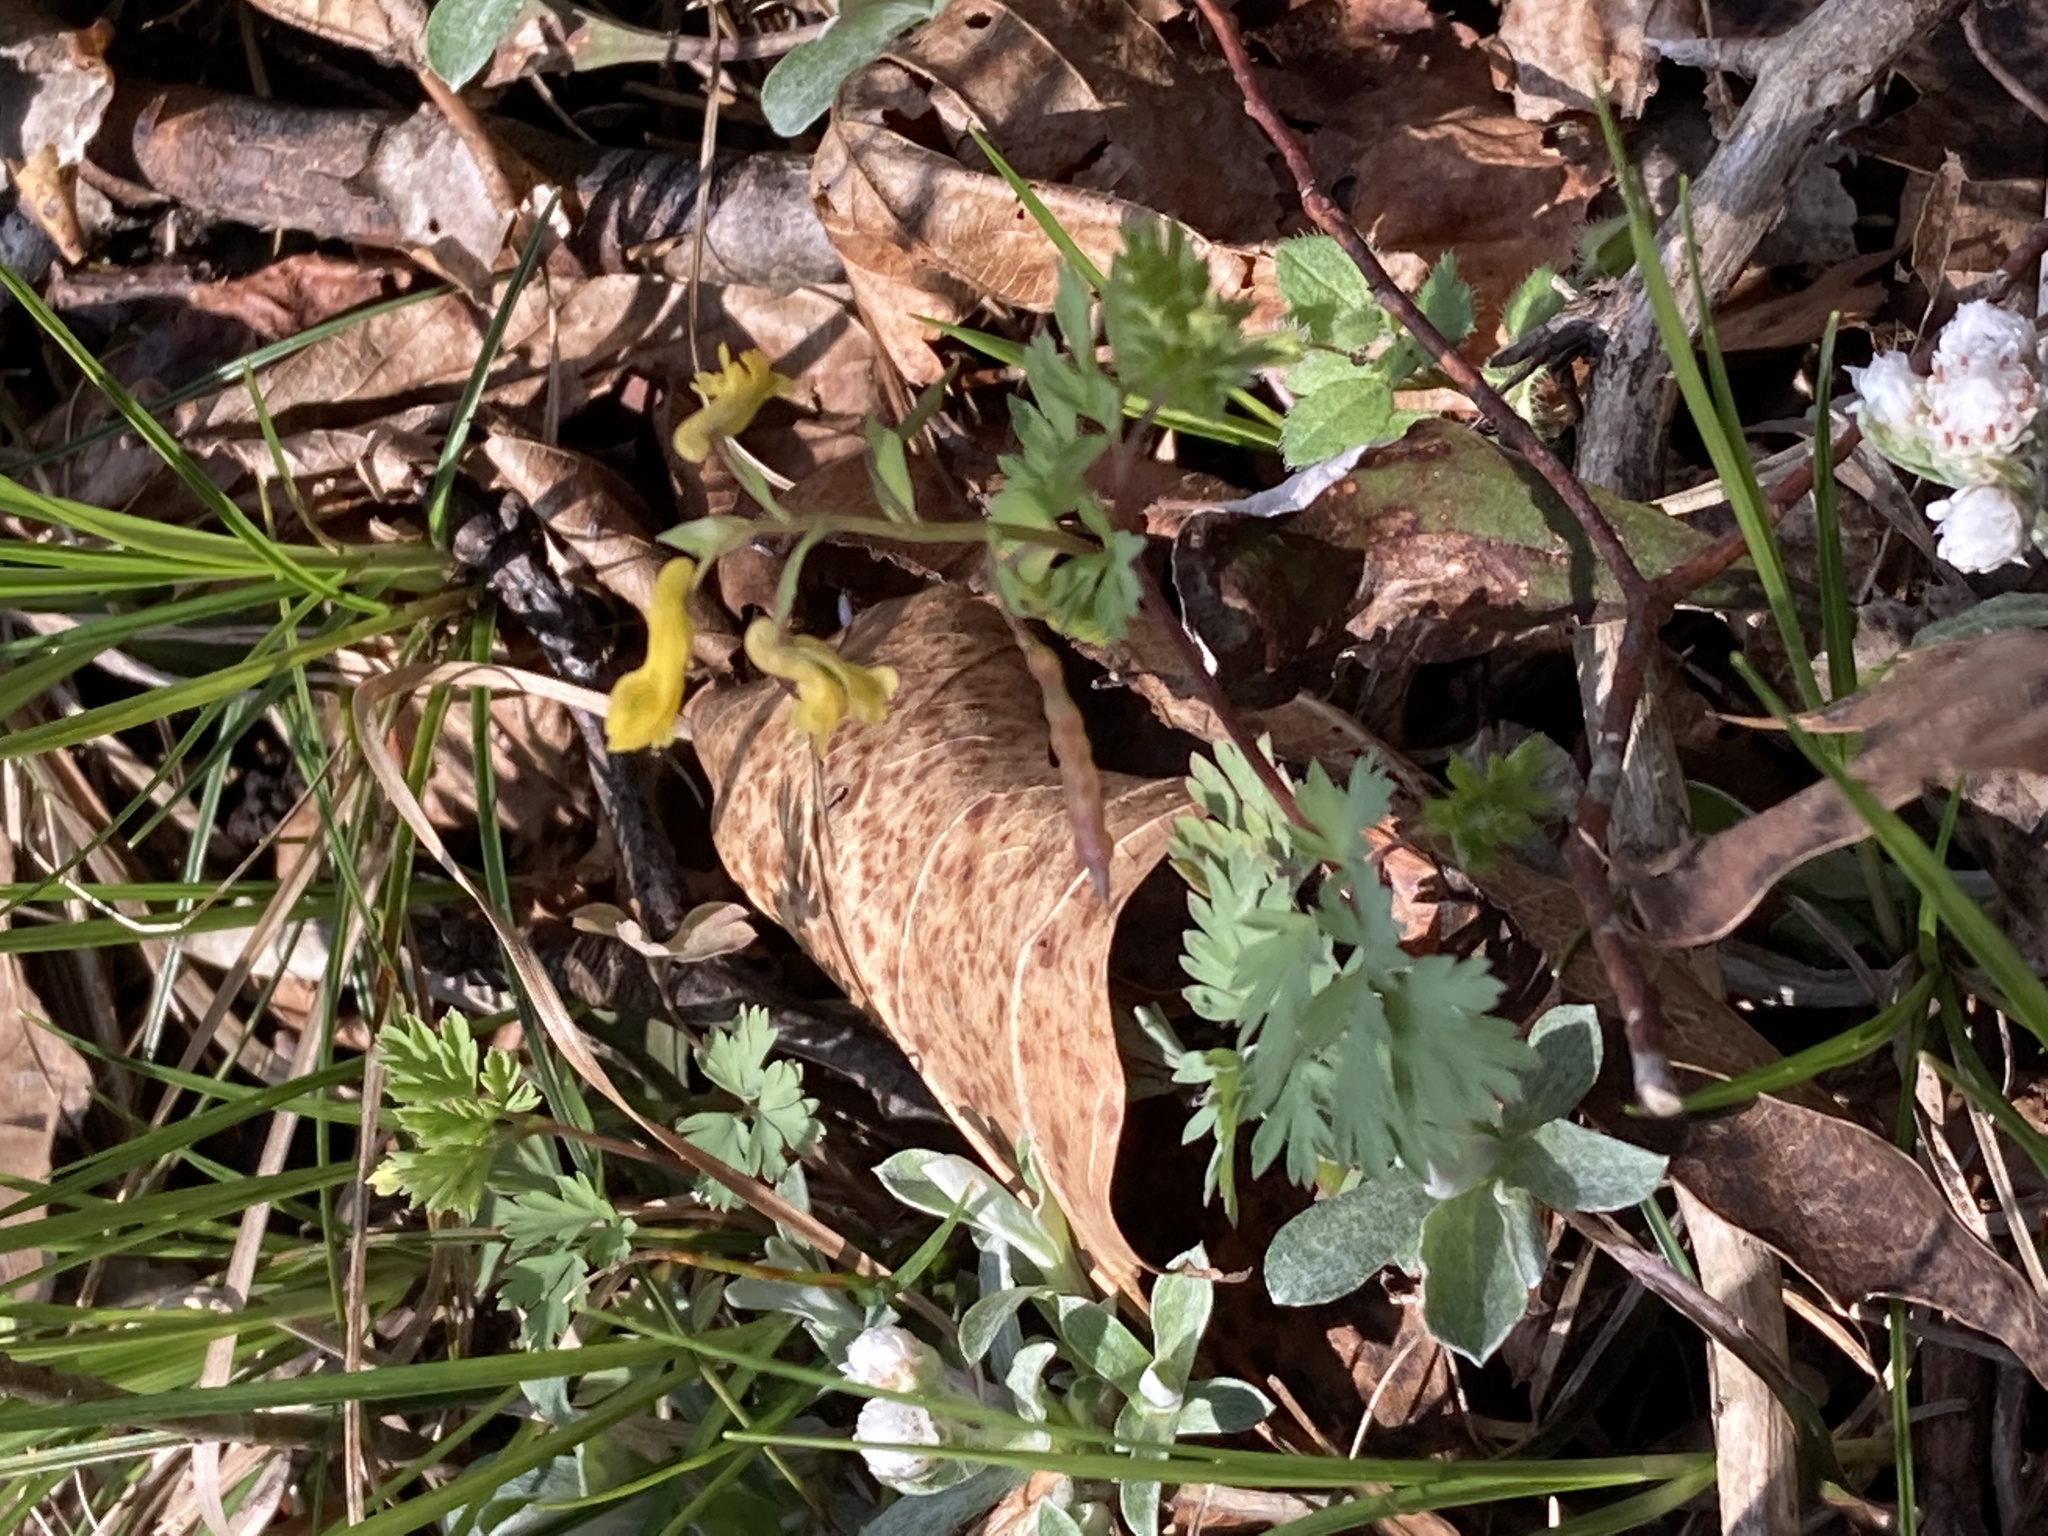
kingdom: Plantae
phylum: Tracheophyta
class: Magnoliopsida
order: Ranunculales
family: Papaveraceae
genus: Corydalis
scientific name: Corydalis flavula
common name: Yellow corydalis
